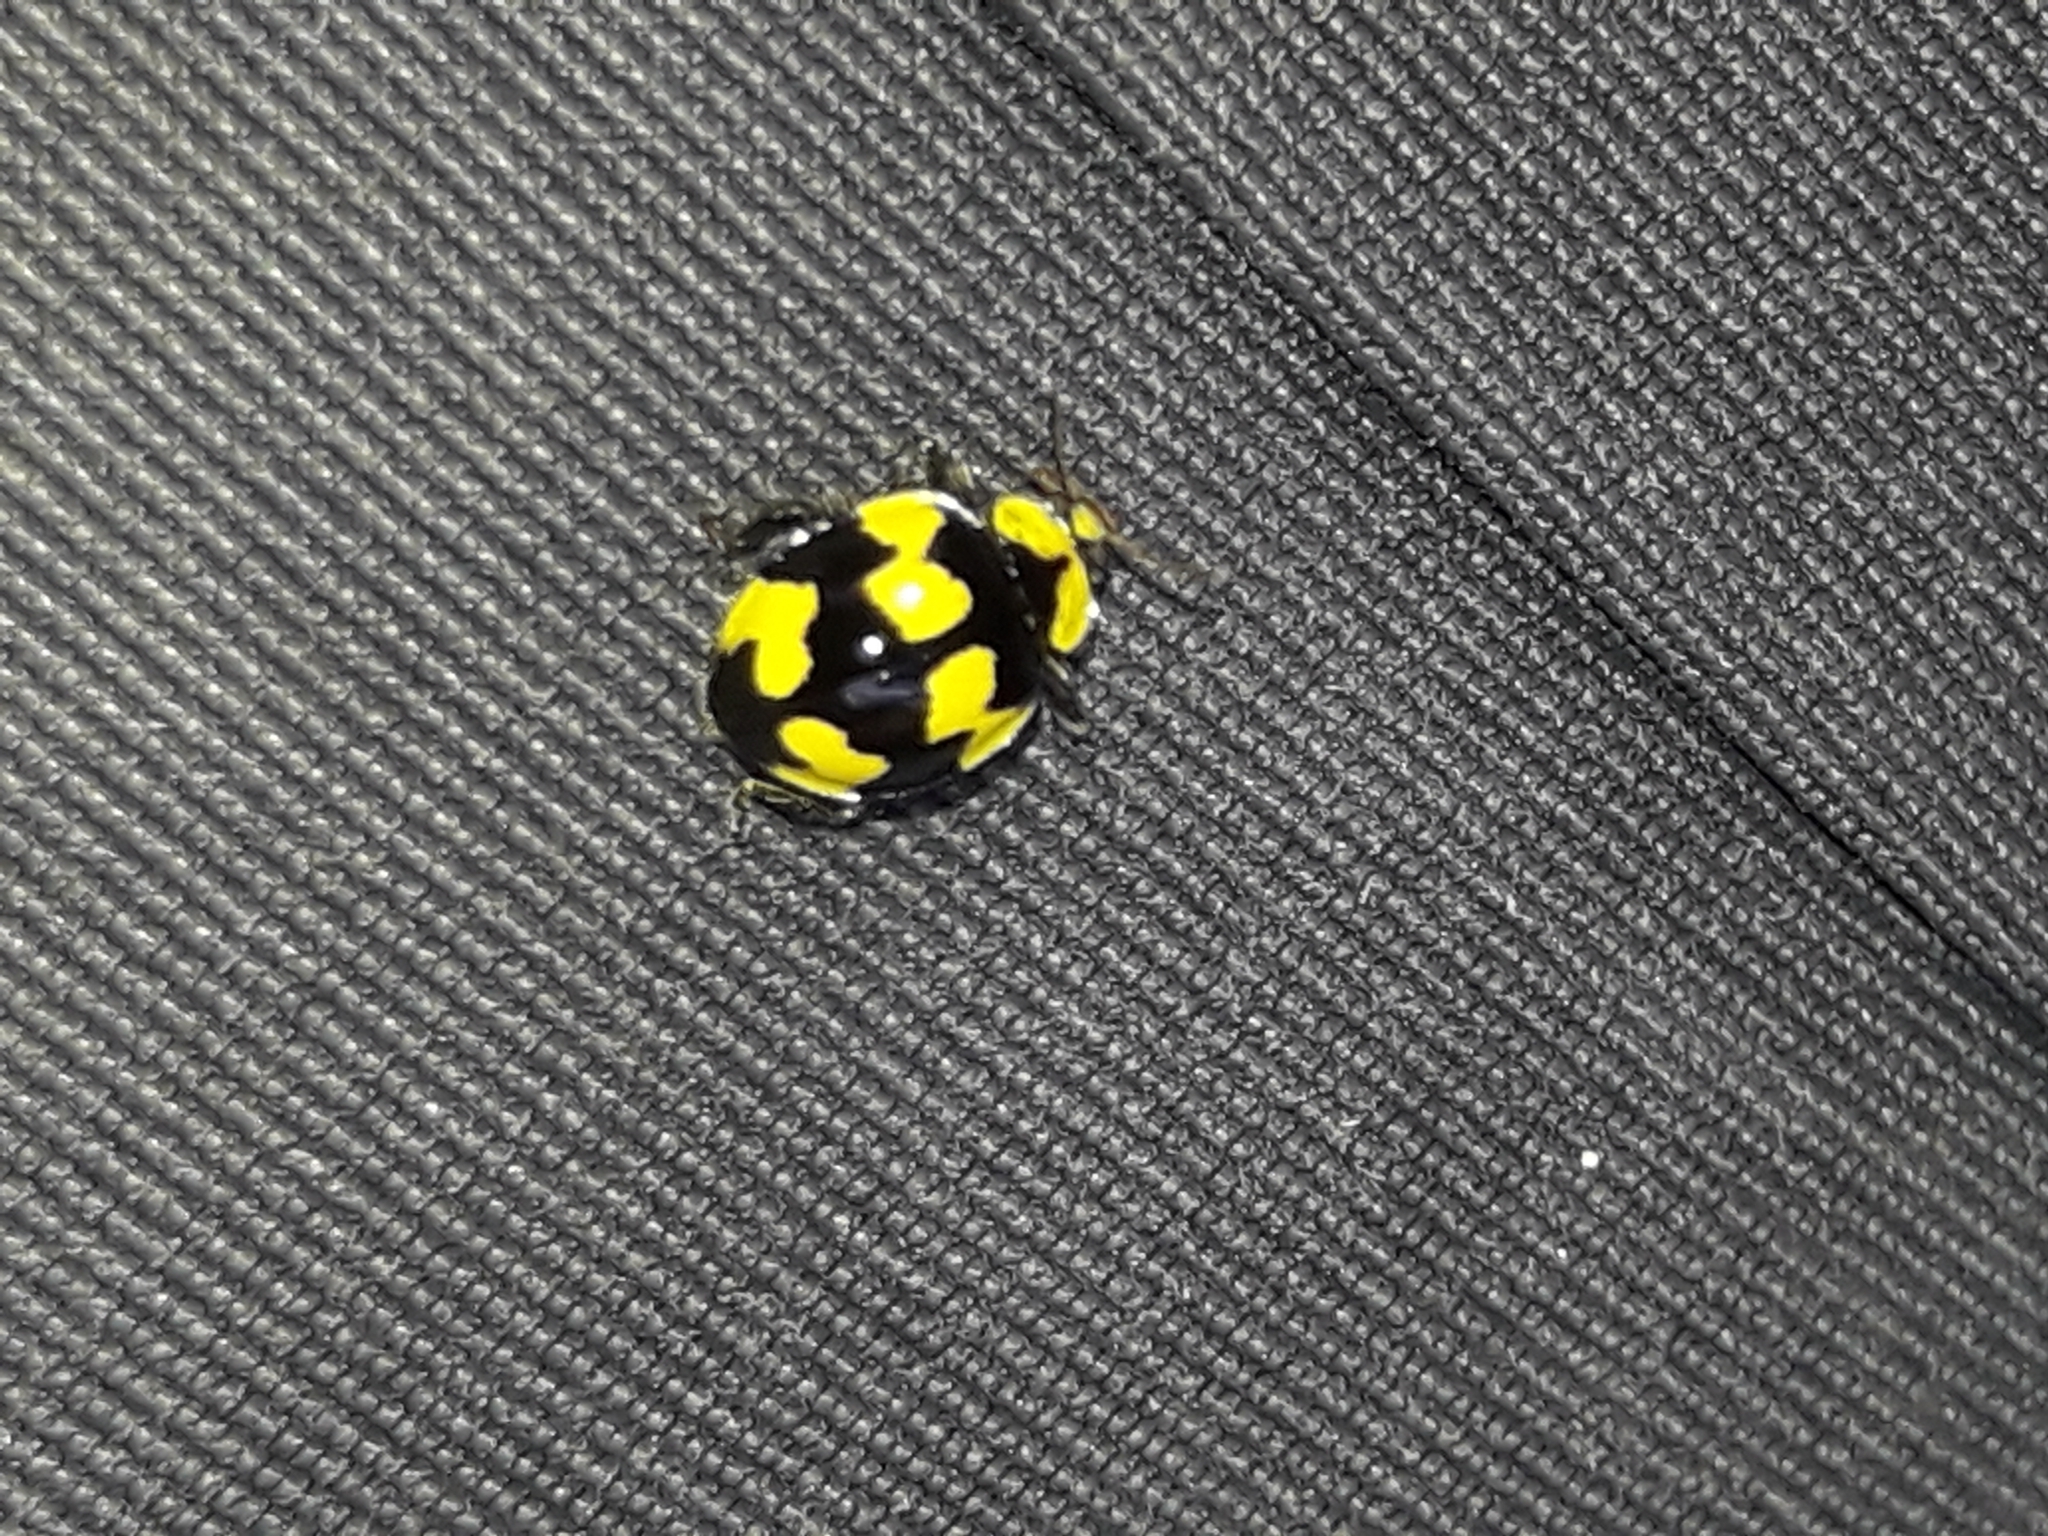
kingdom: Animalia
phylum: Arthropoda
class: Insecta
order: Coleoptera
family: Coccinellidae
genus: Illeis
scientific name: Illeis galbula
